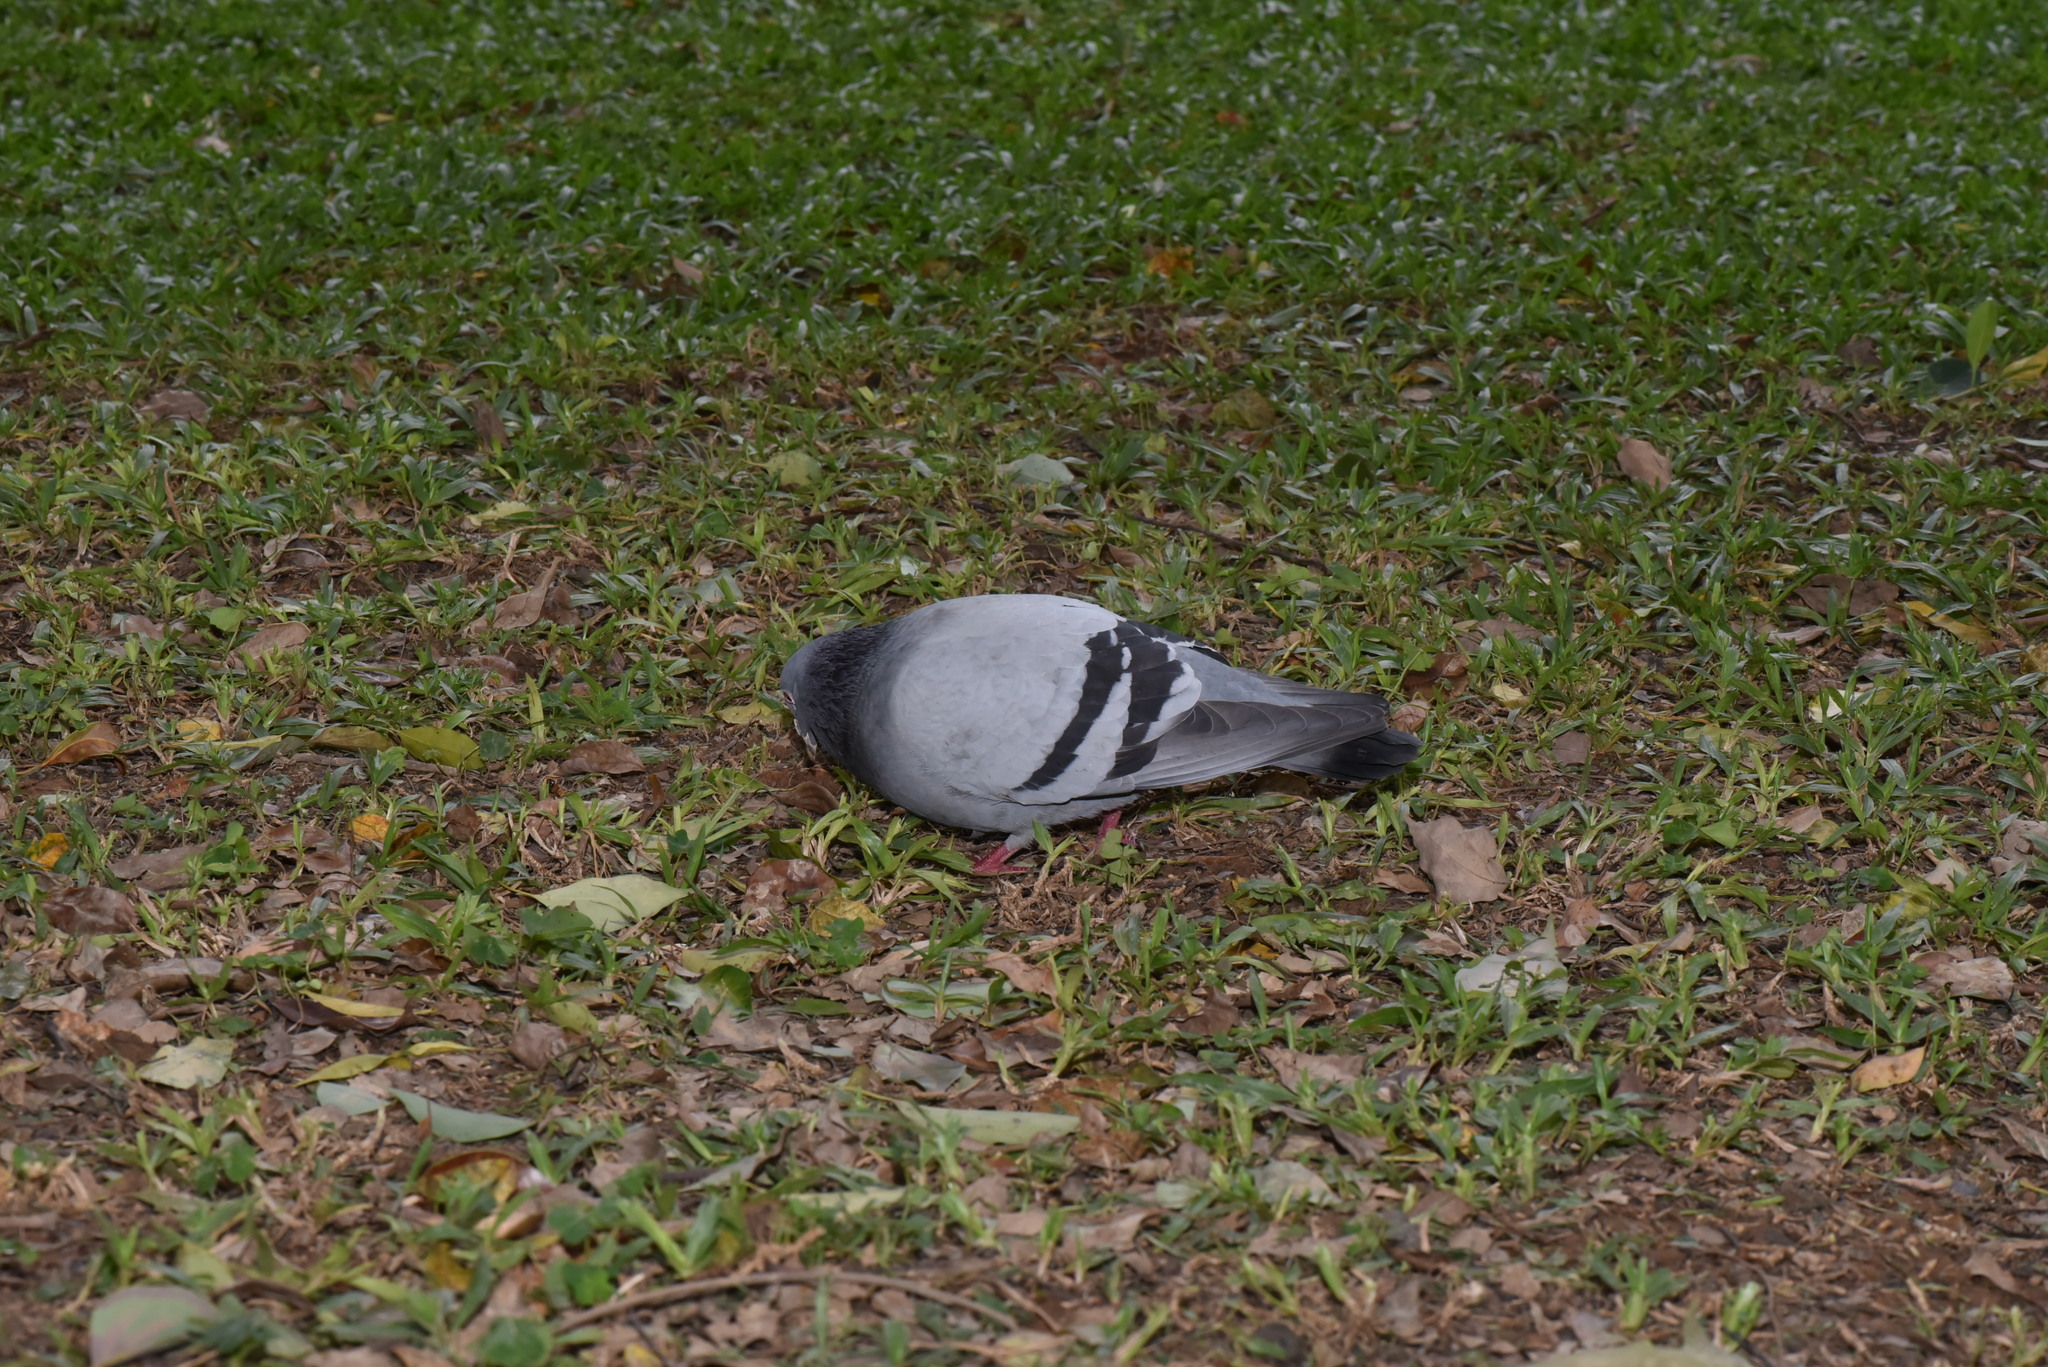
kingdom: Animalia
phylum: Chordata
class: Aves
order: Columbiformes
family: Columbidae
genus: Columba
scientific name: Columba livia
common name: Rock pigeon
